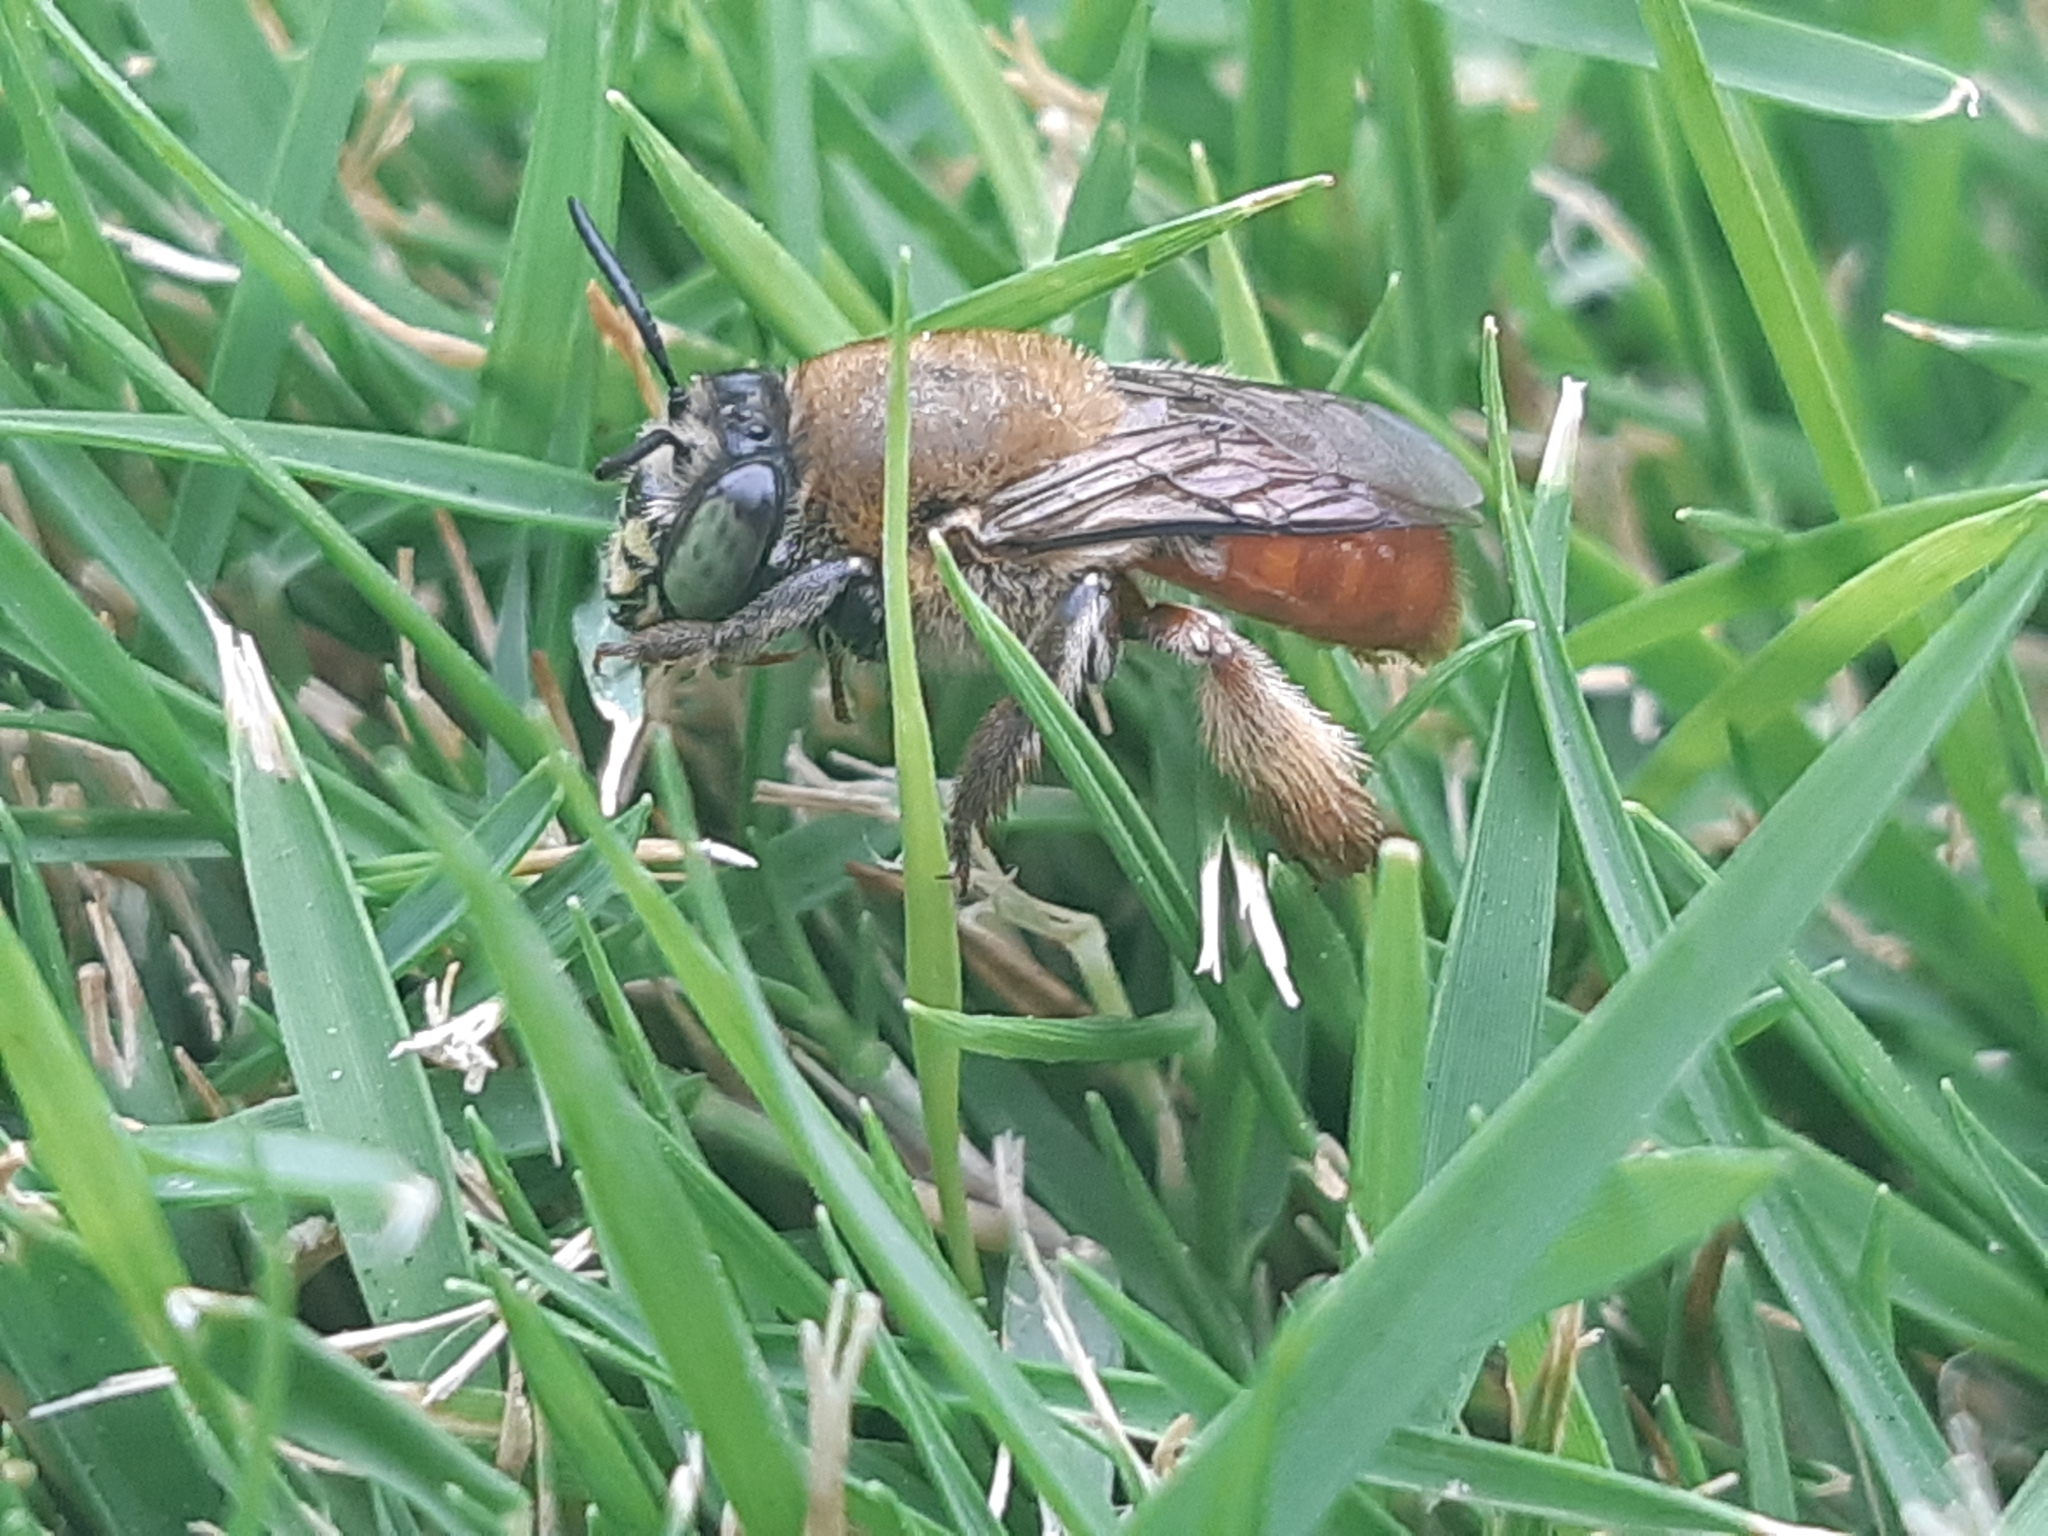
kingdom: Animalia
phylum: Arthropoda
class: Insecta
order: Hymenoptera
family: Apidae
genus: Centris
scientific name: Centris analis
